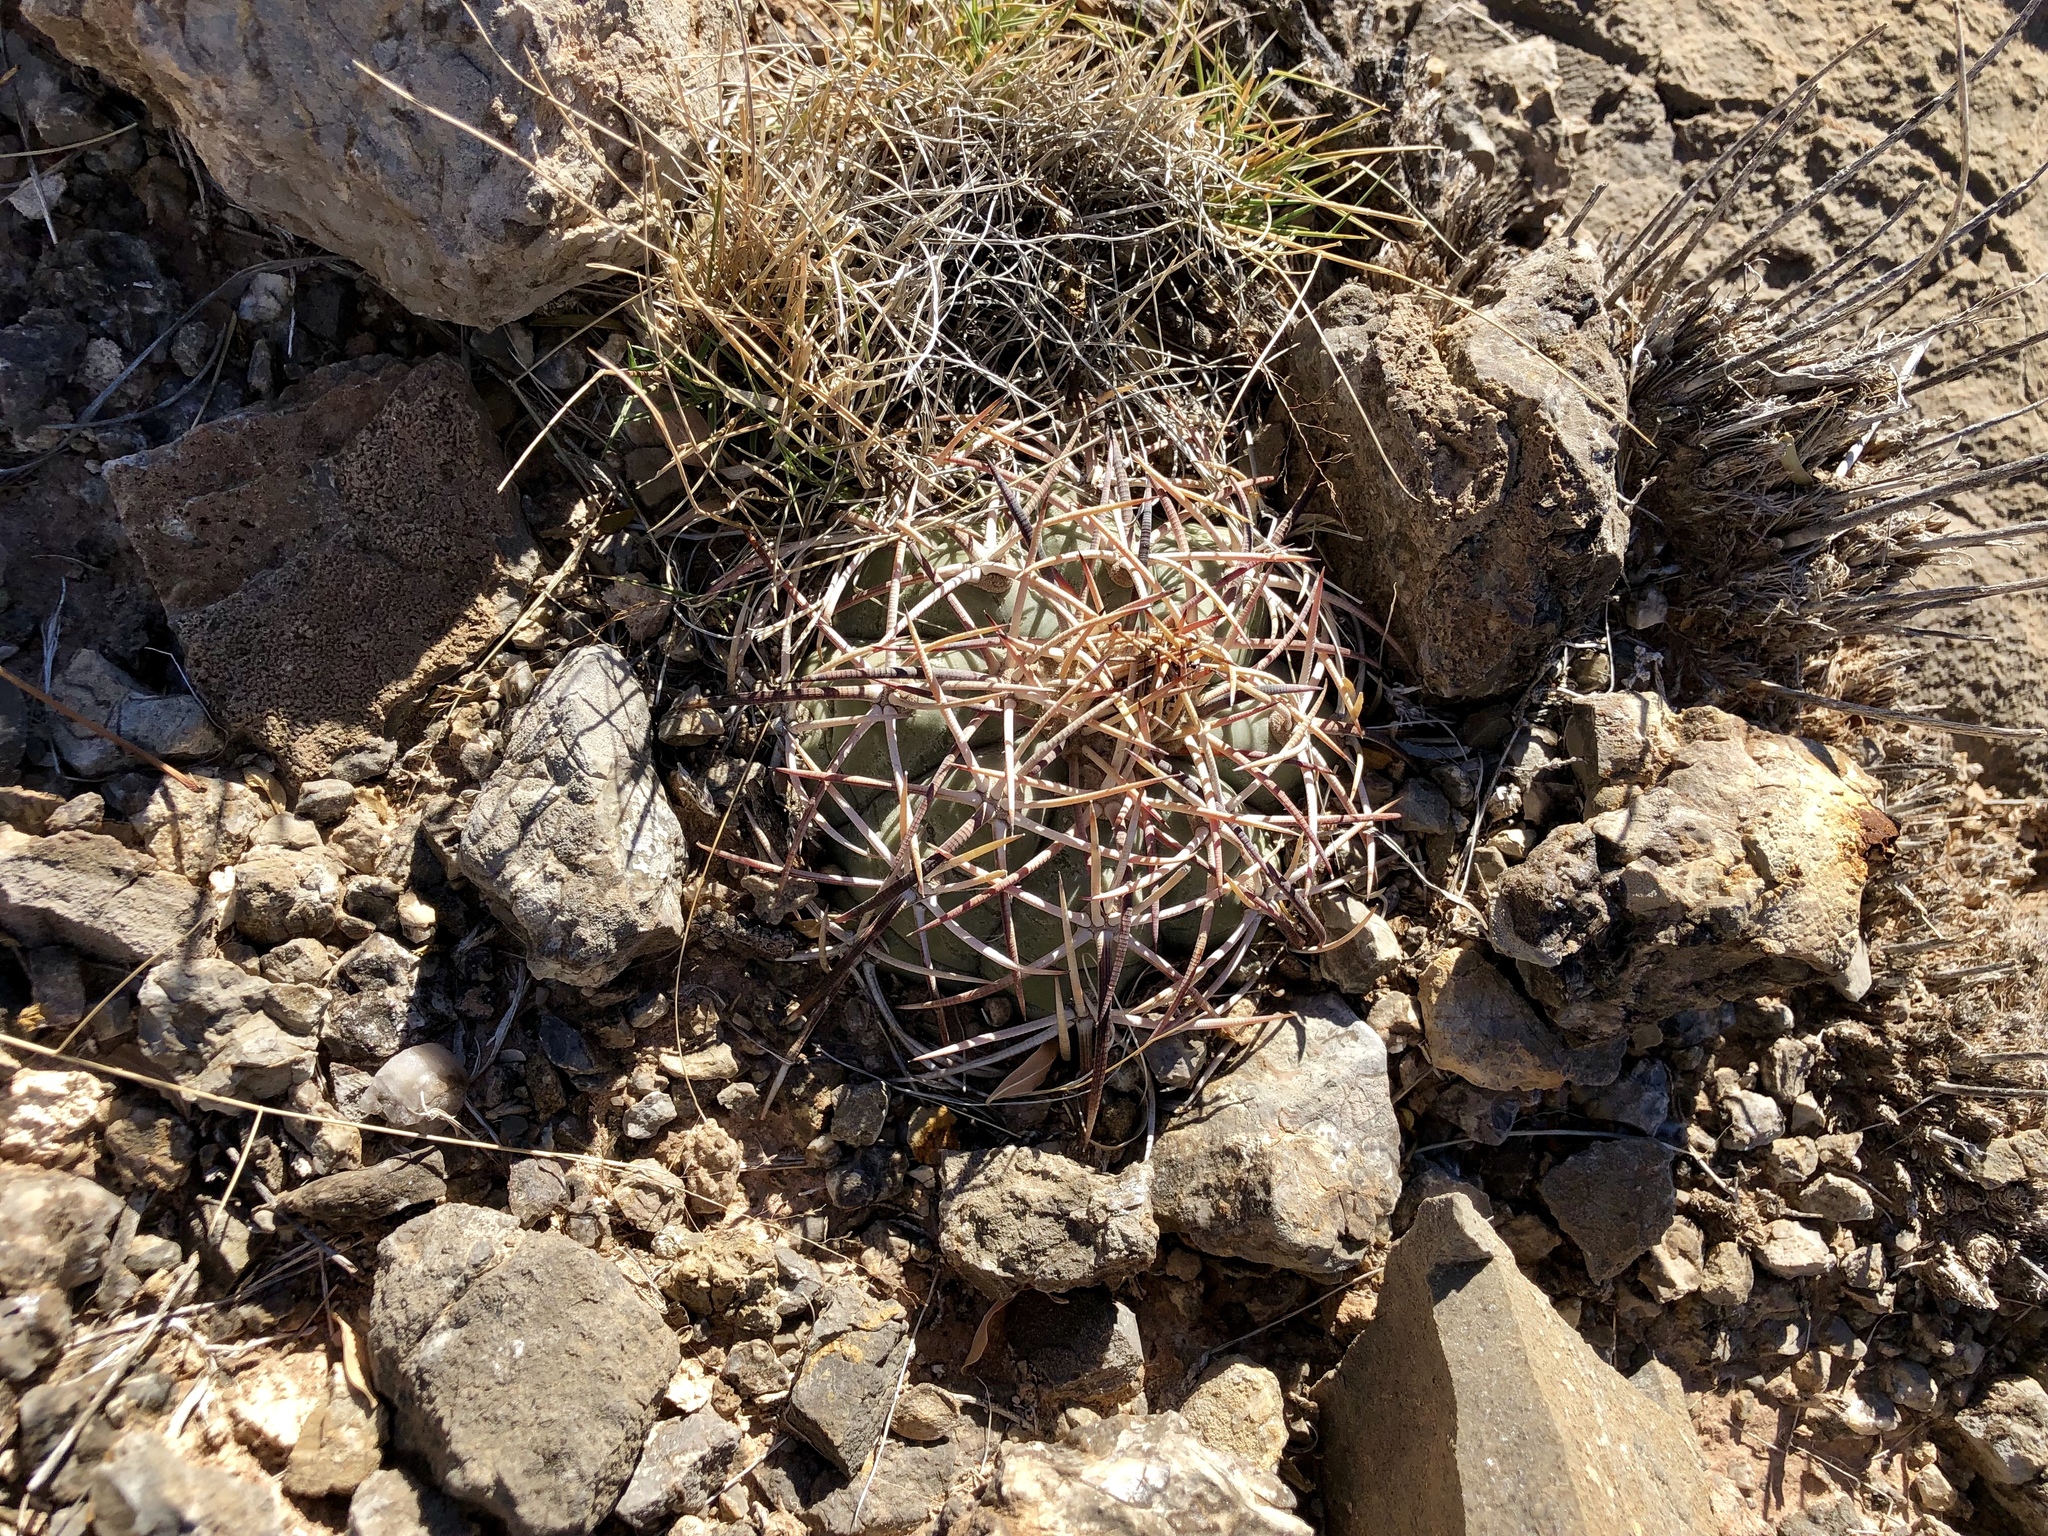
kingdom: Plantae
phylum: Tracheophyta
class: Magnoliopsida
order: Caryophyllales
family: Cactaceae
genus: Echinocactus
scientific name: Echinocactus horizonthalonius
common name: Devilshead
